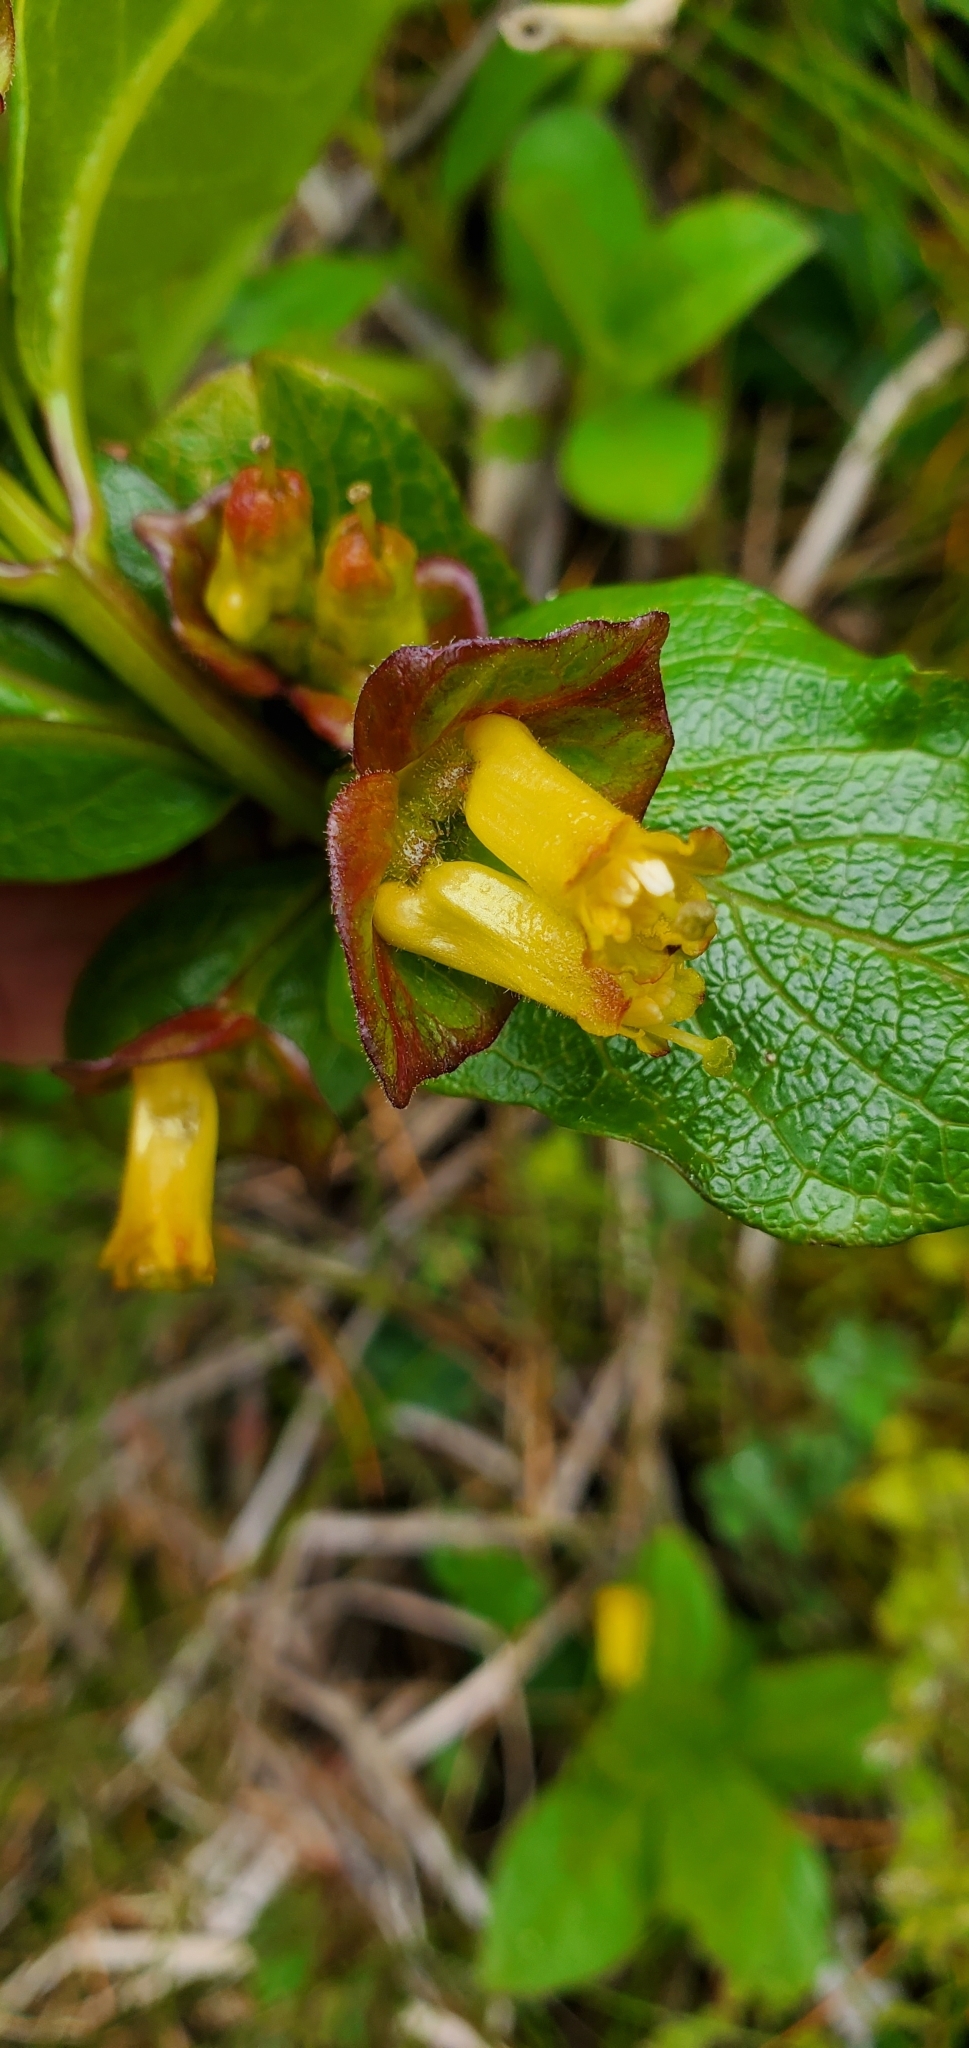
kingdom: Plantae
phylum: Tracheophyta
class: Magnoliopsida
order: Dipsacales
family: Caprifoliaceae
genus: Lonicera
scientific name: Lonicera involucrata
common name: Californian honeysuckle
